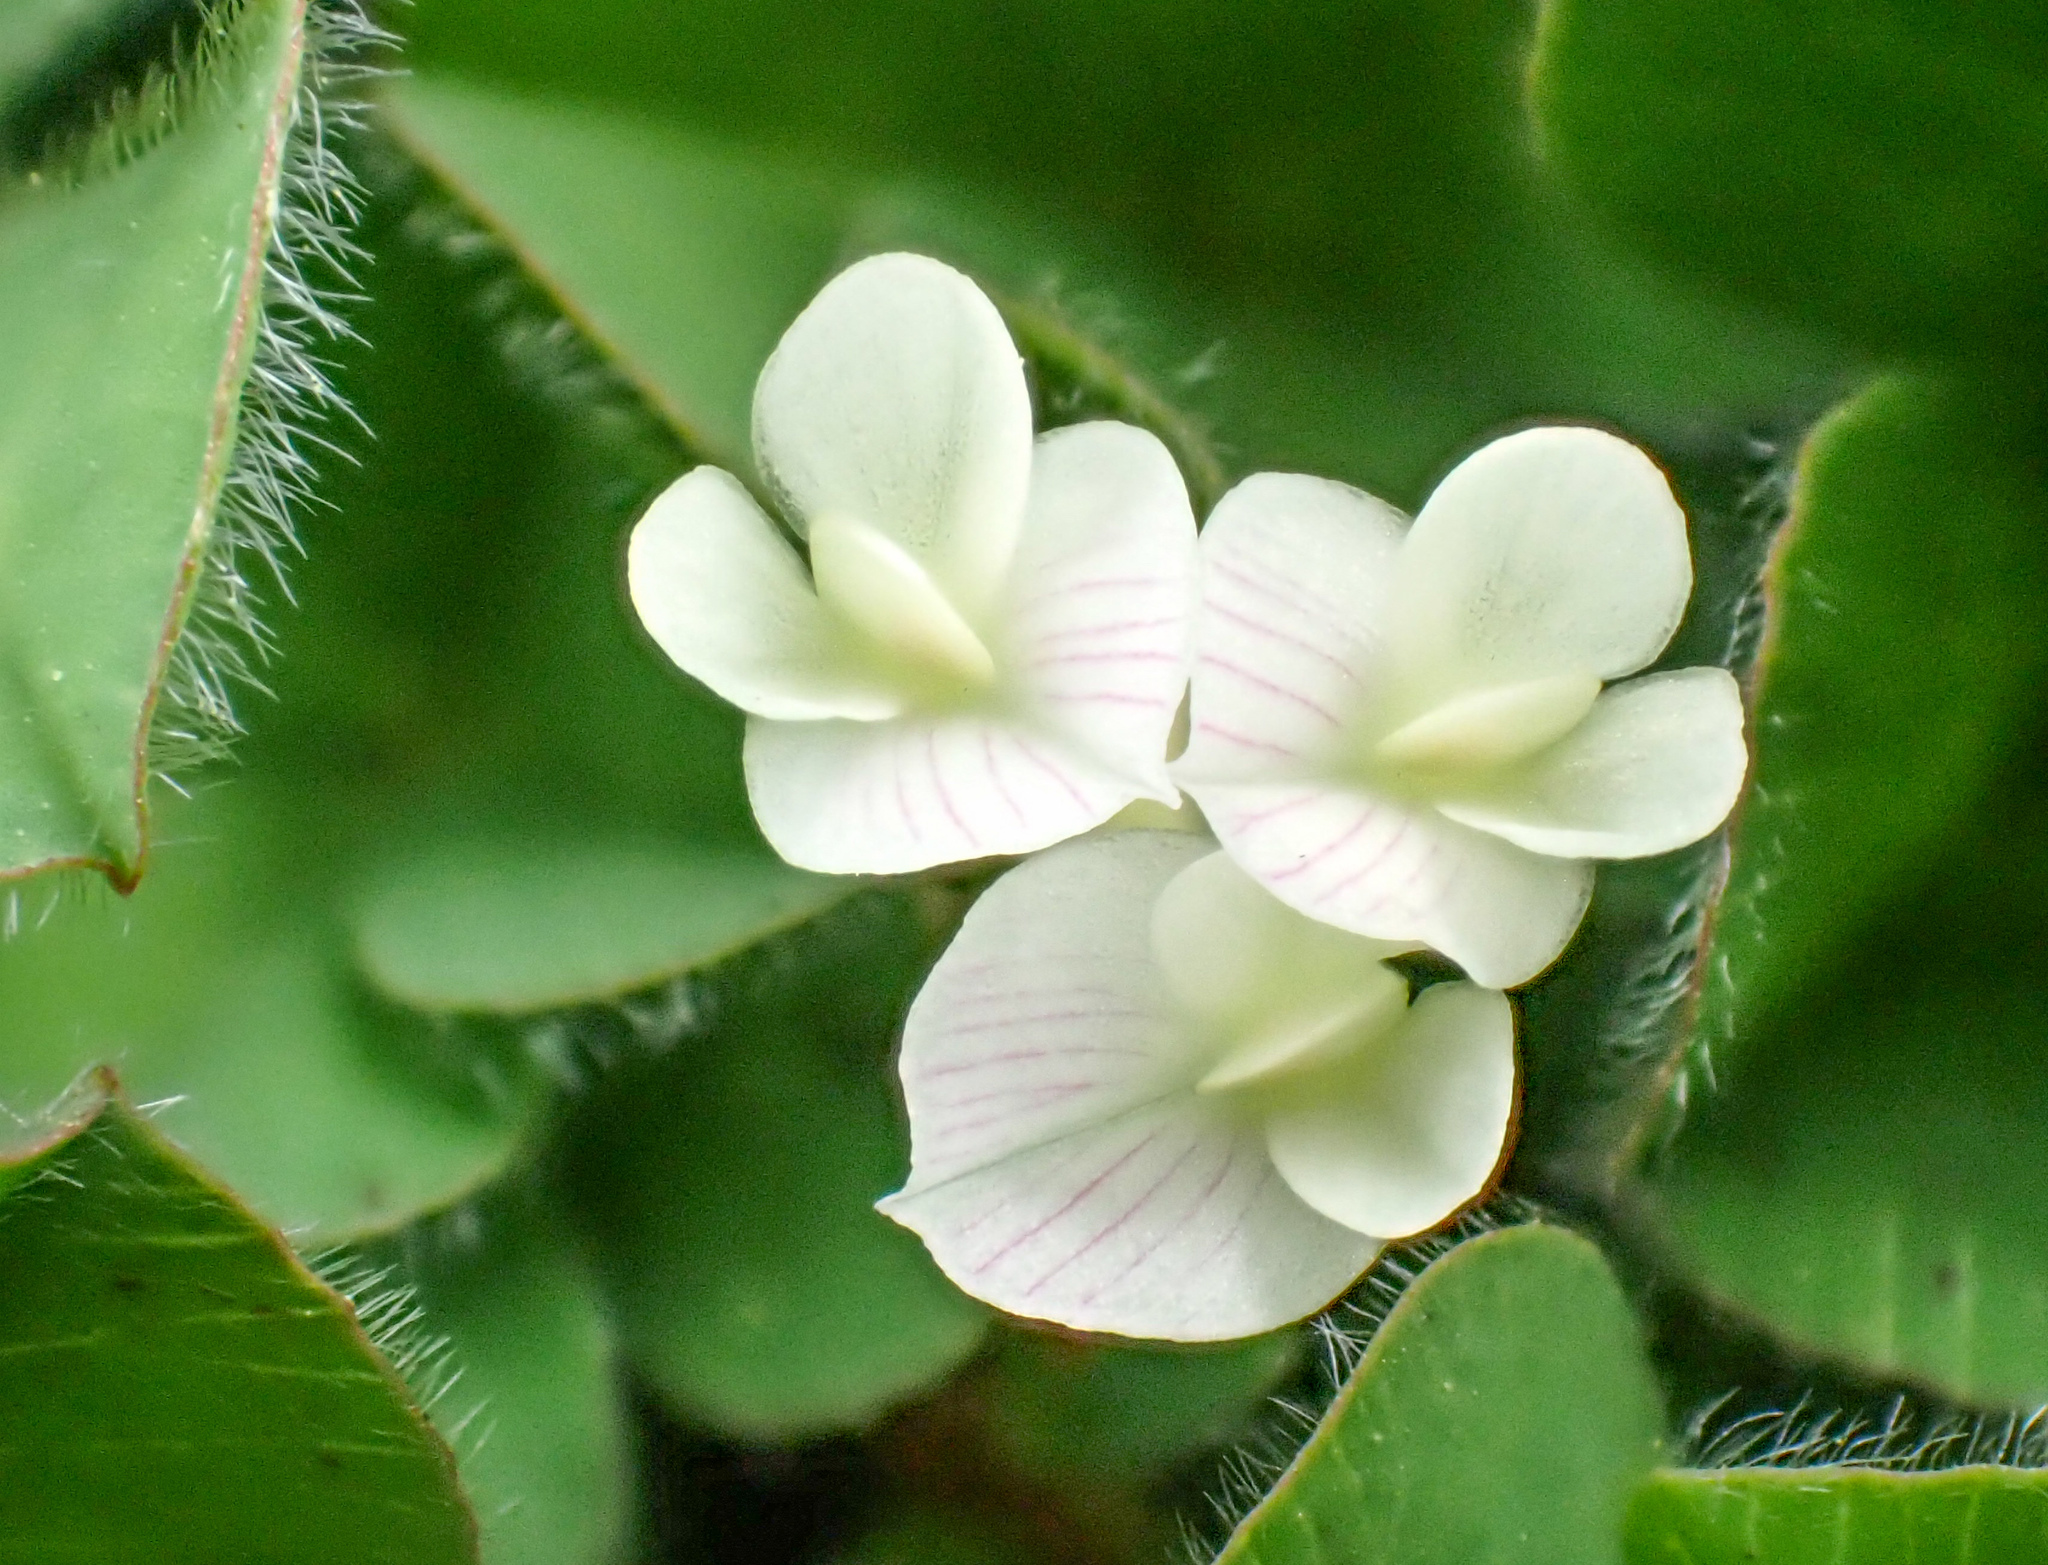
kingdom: Plantae
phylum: Tracheophyta
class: Magnoliopsida
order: Fabales
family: Fabaceae
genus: Trifolium
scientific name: Trifolium subterraneum
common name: Subterranean clover
